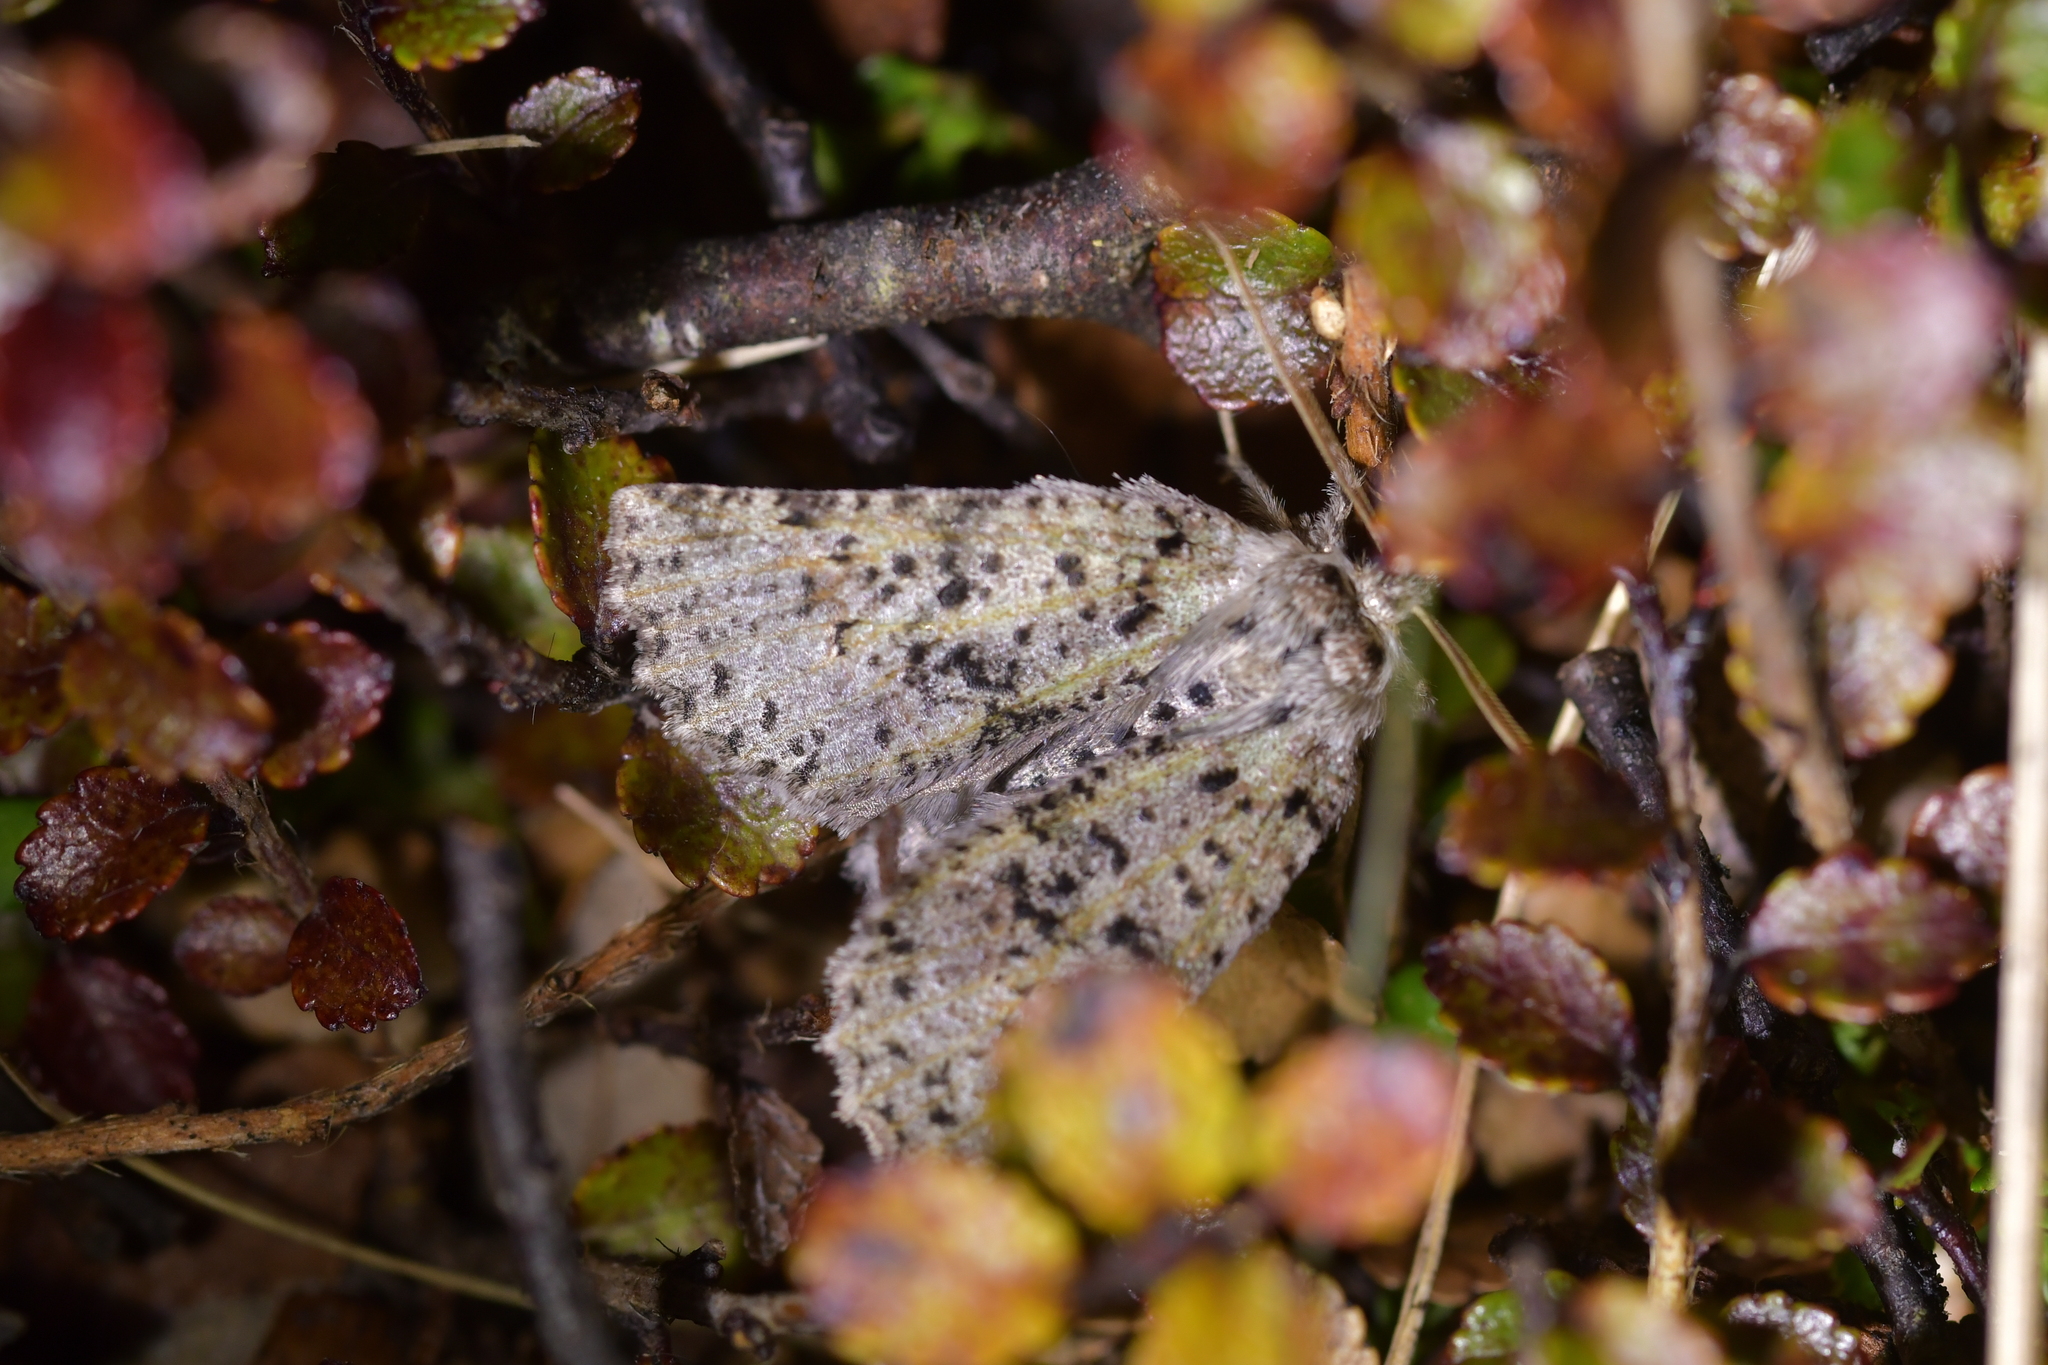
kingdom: Animalia
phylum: Arthropoda
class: Insecta
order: Lepidoptera
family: Geometridae
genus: Declana
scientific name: Declana floccosa
